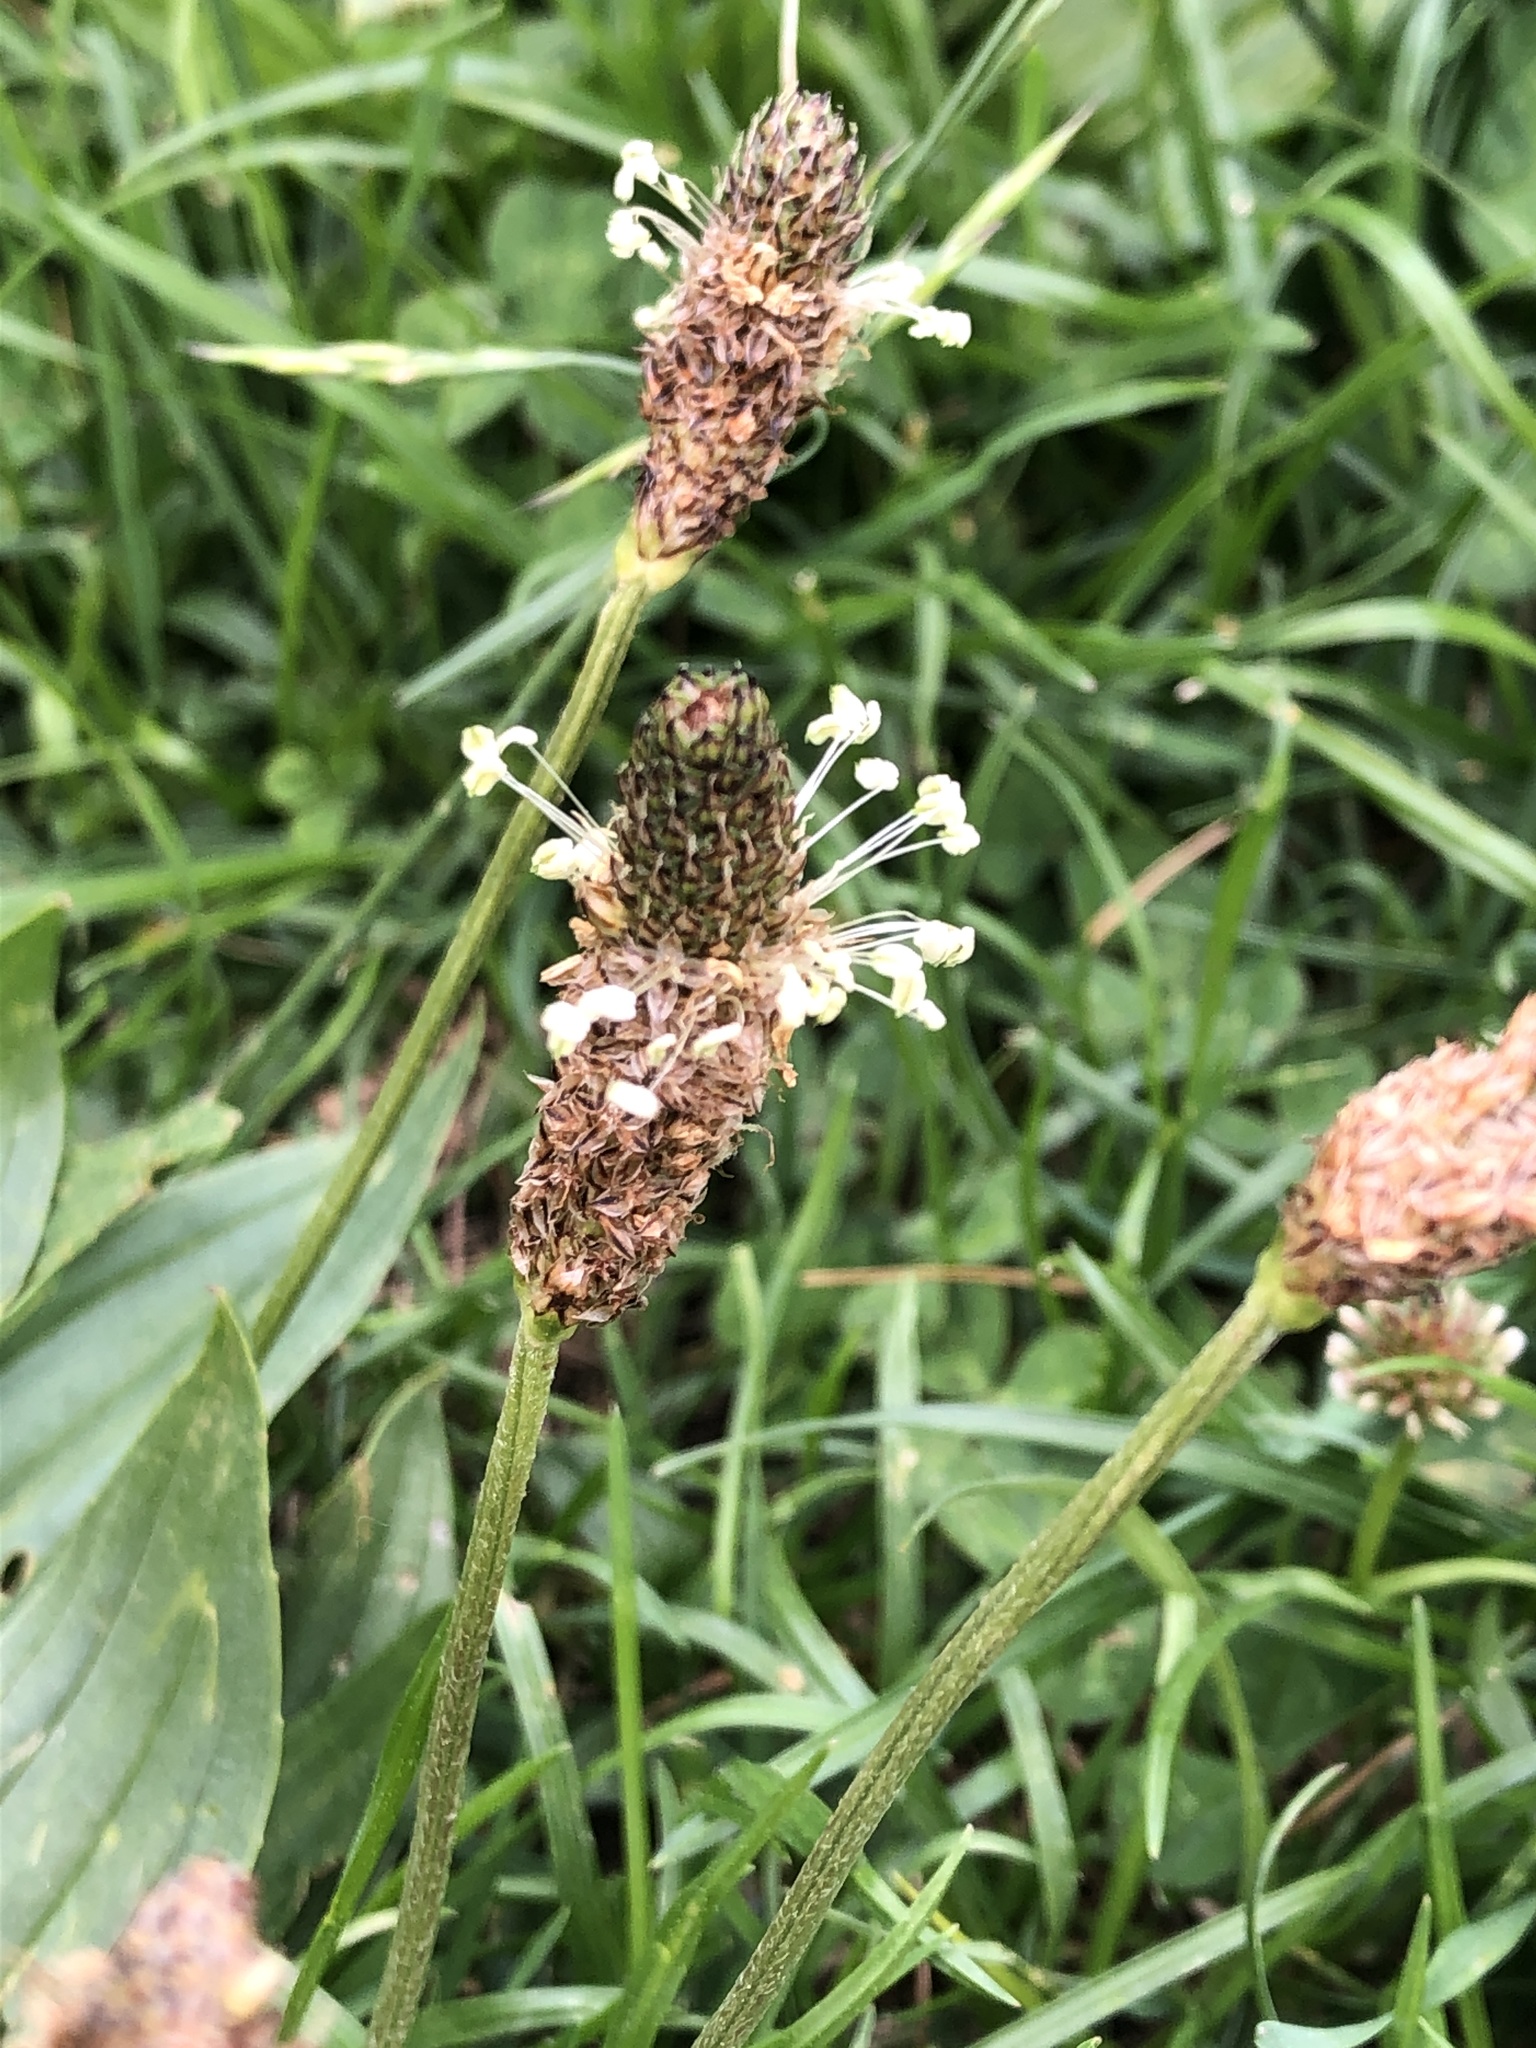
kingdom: Plantae
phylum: Tracheophyta
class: Magnoliopsida
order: Lamiales
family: Plantaginaceae
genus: Plantago
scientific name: Plantago lanceolata
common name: Ribwort plantain
